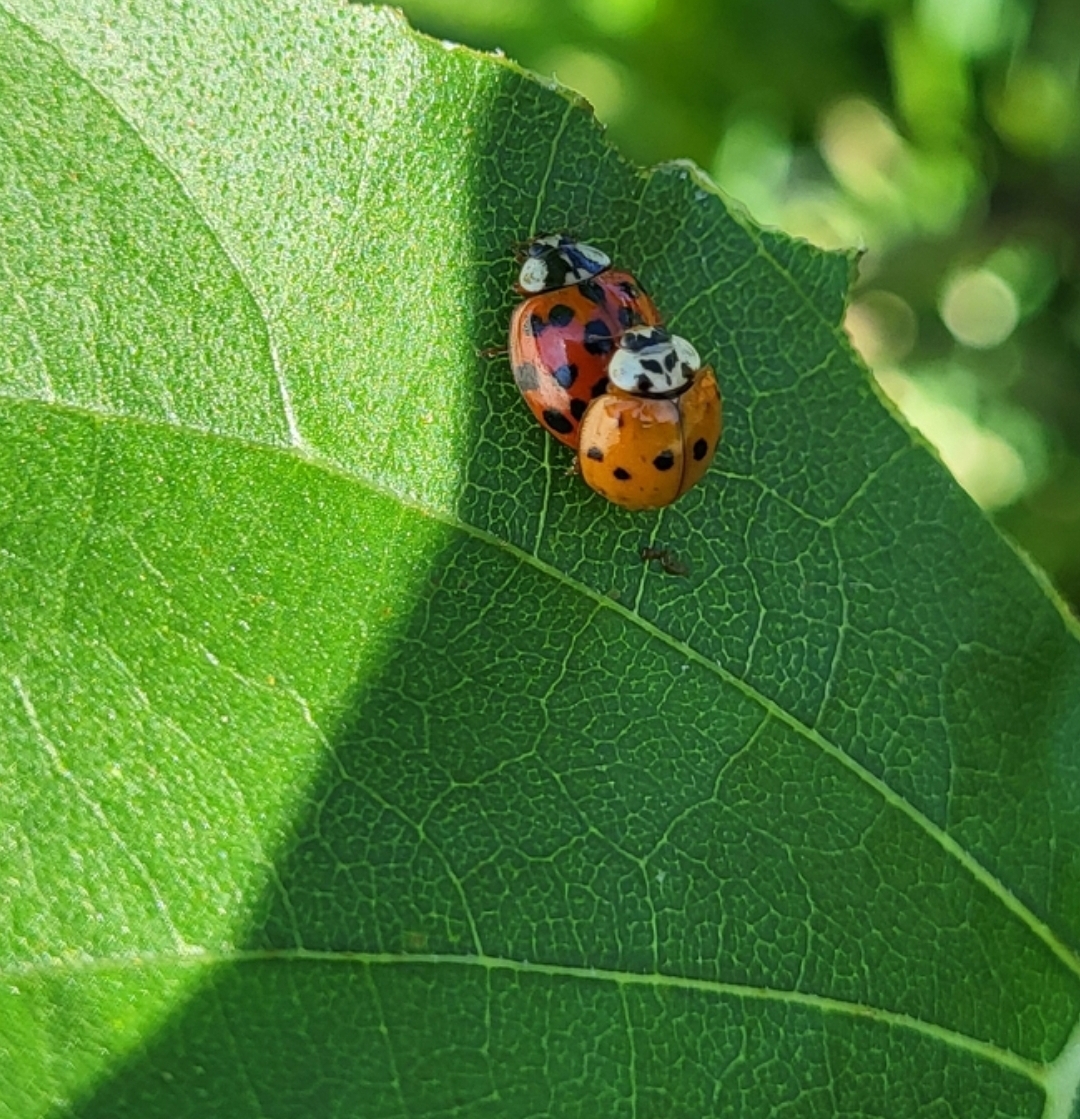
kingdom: Animalia
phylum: Arthropoda
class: Insecta
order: Coleoptera
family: Coccinellidae
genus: Harmonia
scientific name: Harmonia axyridis
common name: Harlequin ladybird
